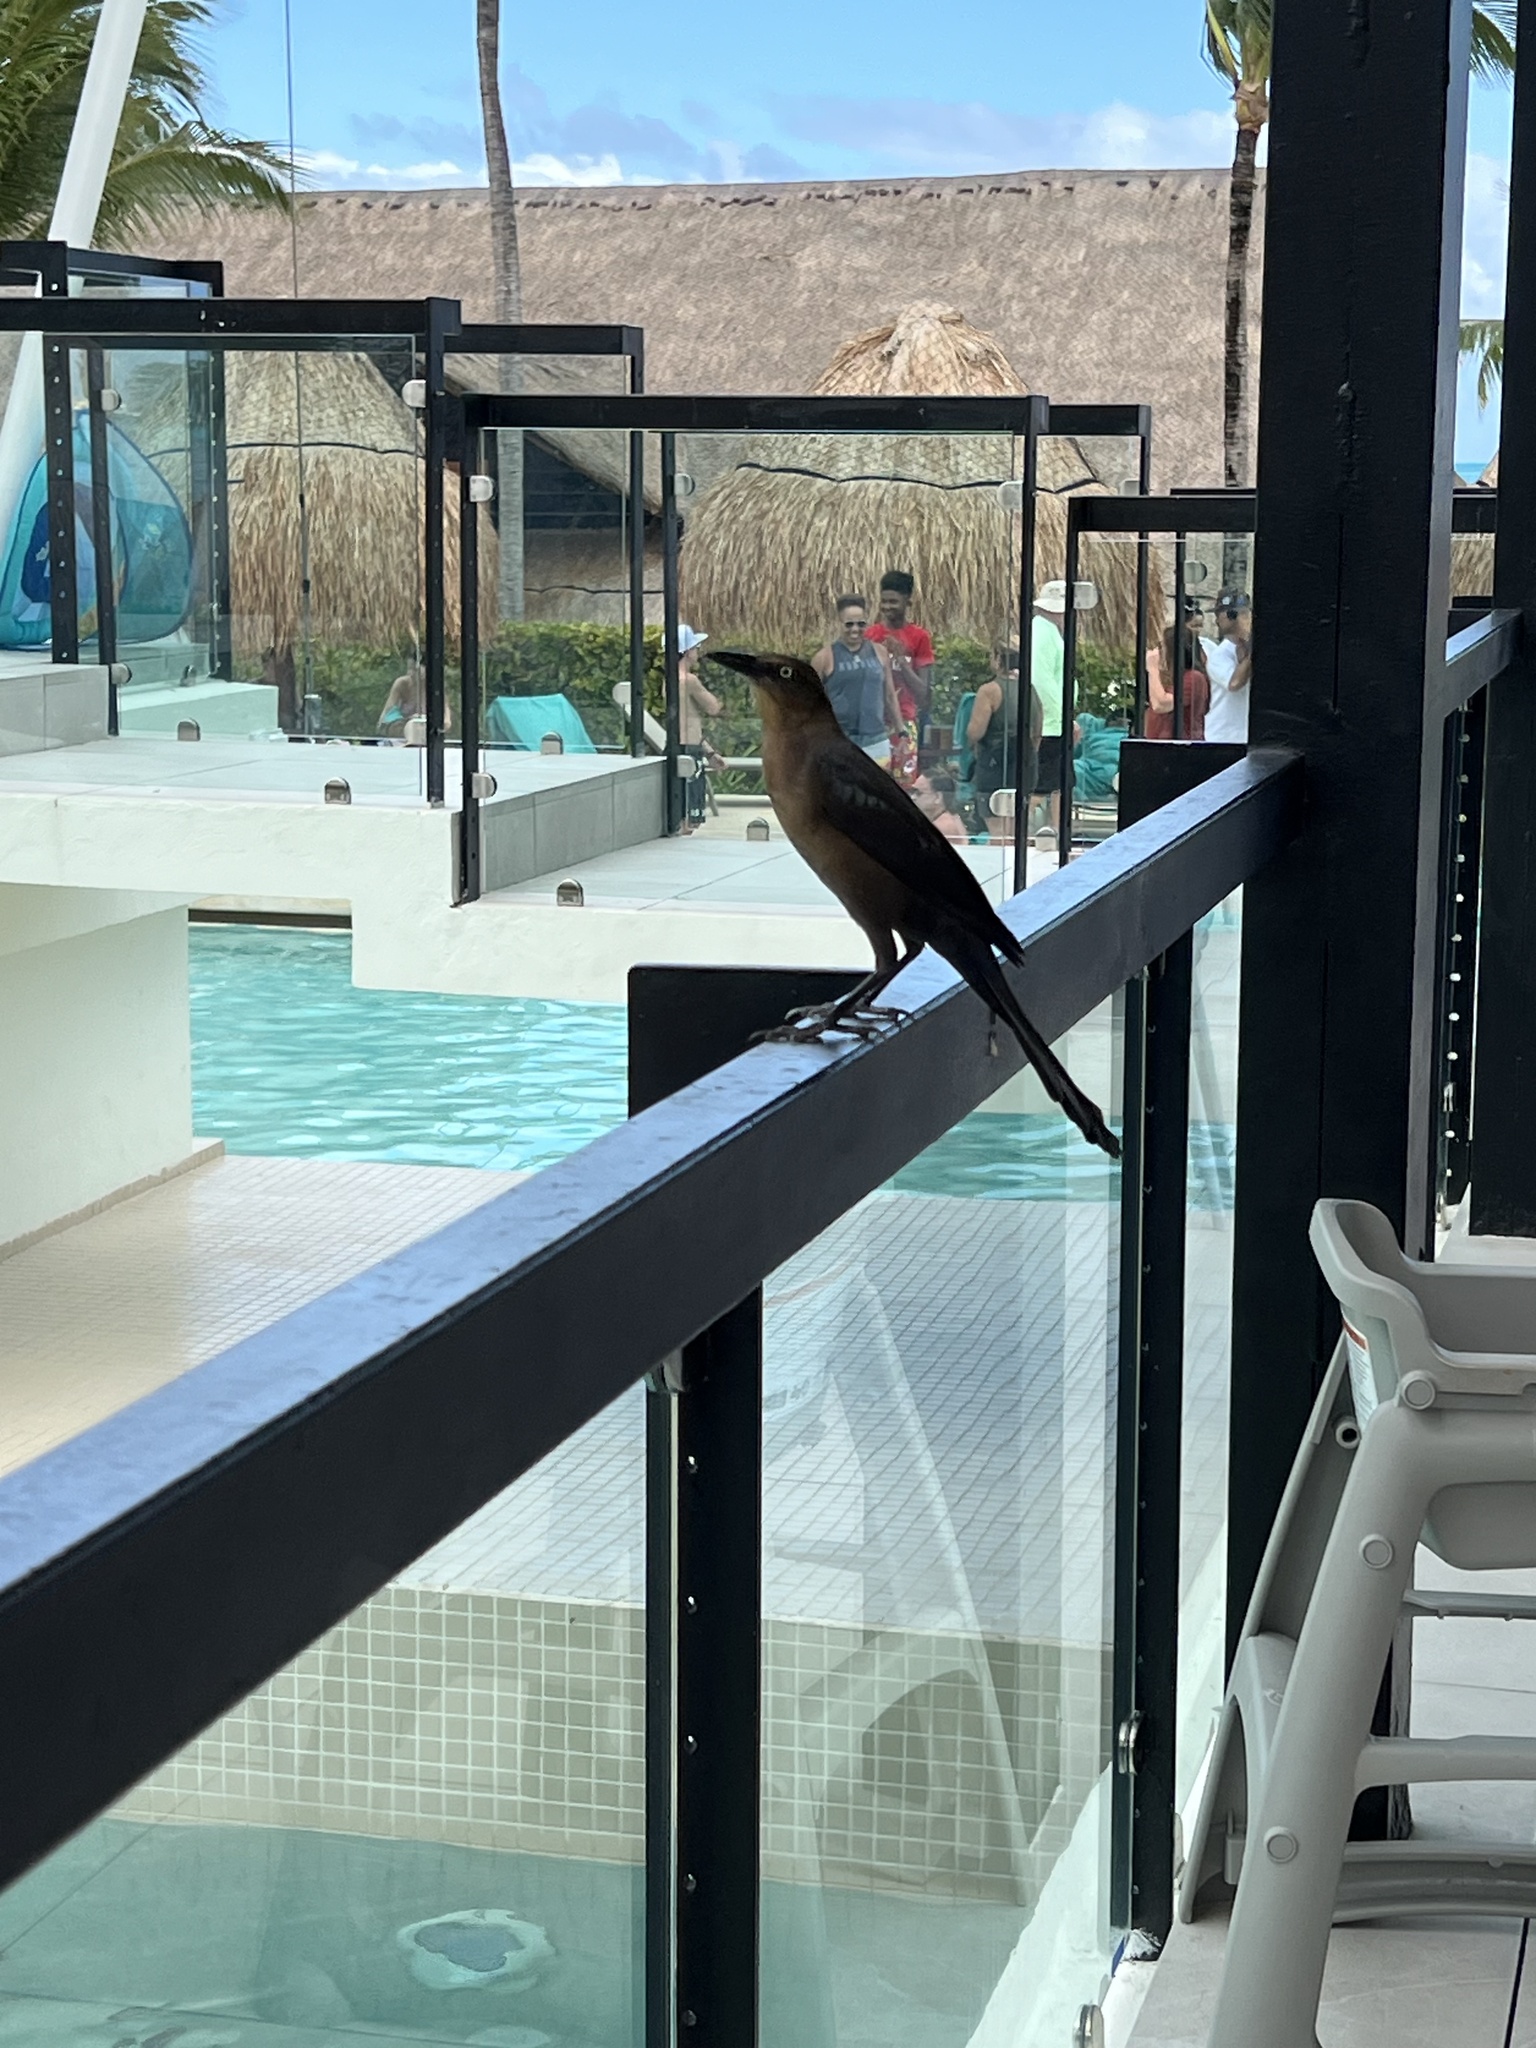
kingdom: Animalia
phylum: Chordata
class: Aves
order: Passeriformes
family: Icteridae
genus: Quiscalus
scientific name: Quiscalus mexicanus
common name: Great-tailed grackle
